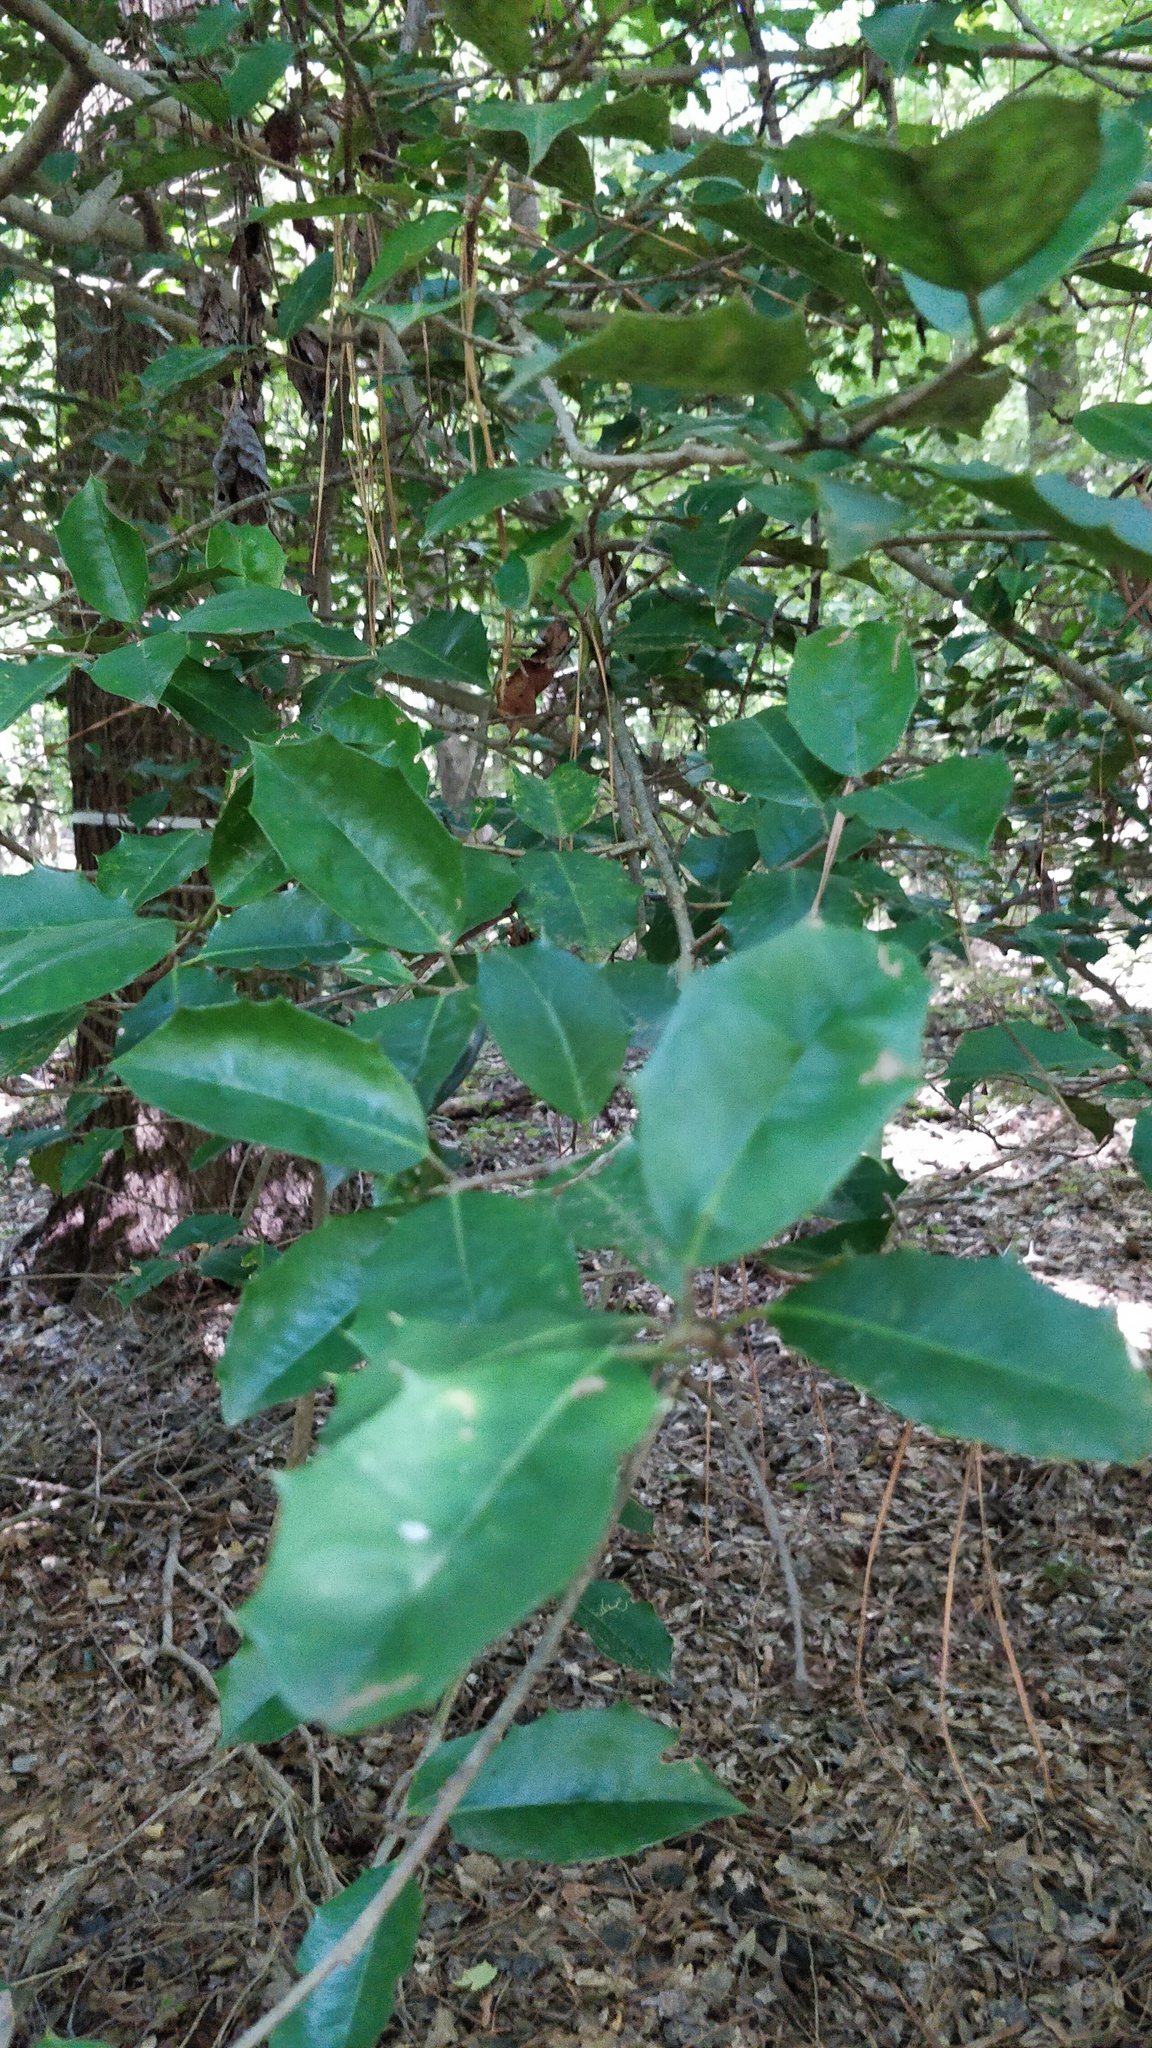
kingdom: Plantae
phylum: Tracheophyta
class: Magnoliopsida
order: Aquifoliales
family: Aquifoliaceae
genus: Ilex
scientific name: Ilex opaca
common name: American holly
